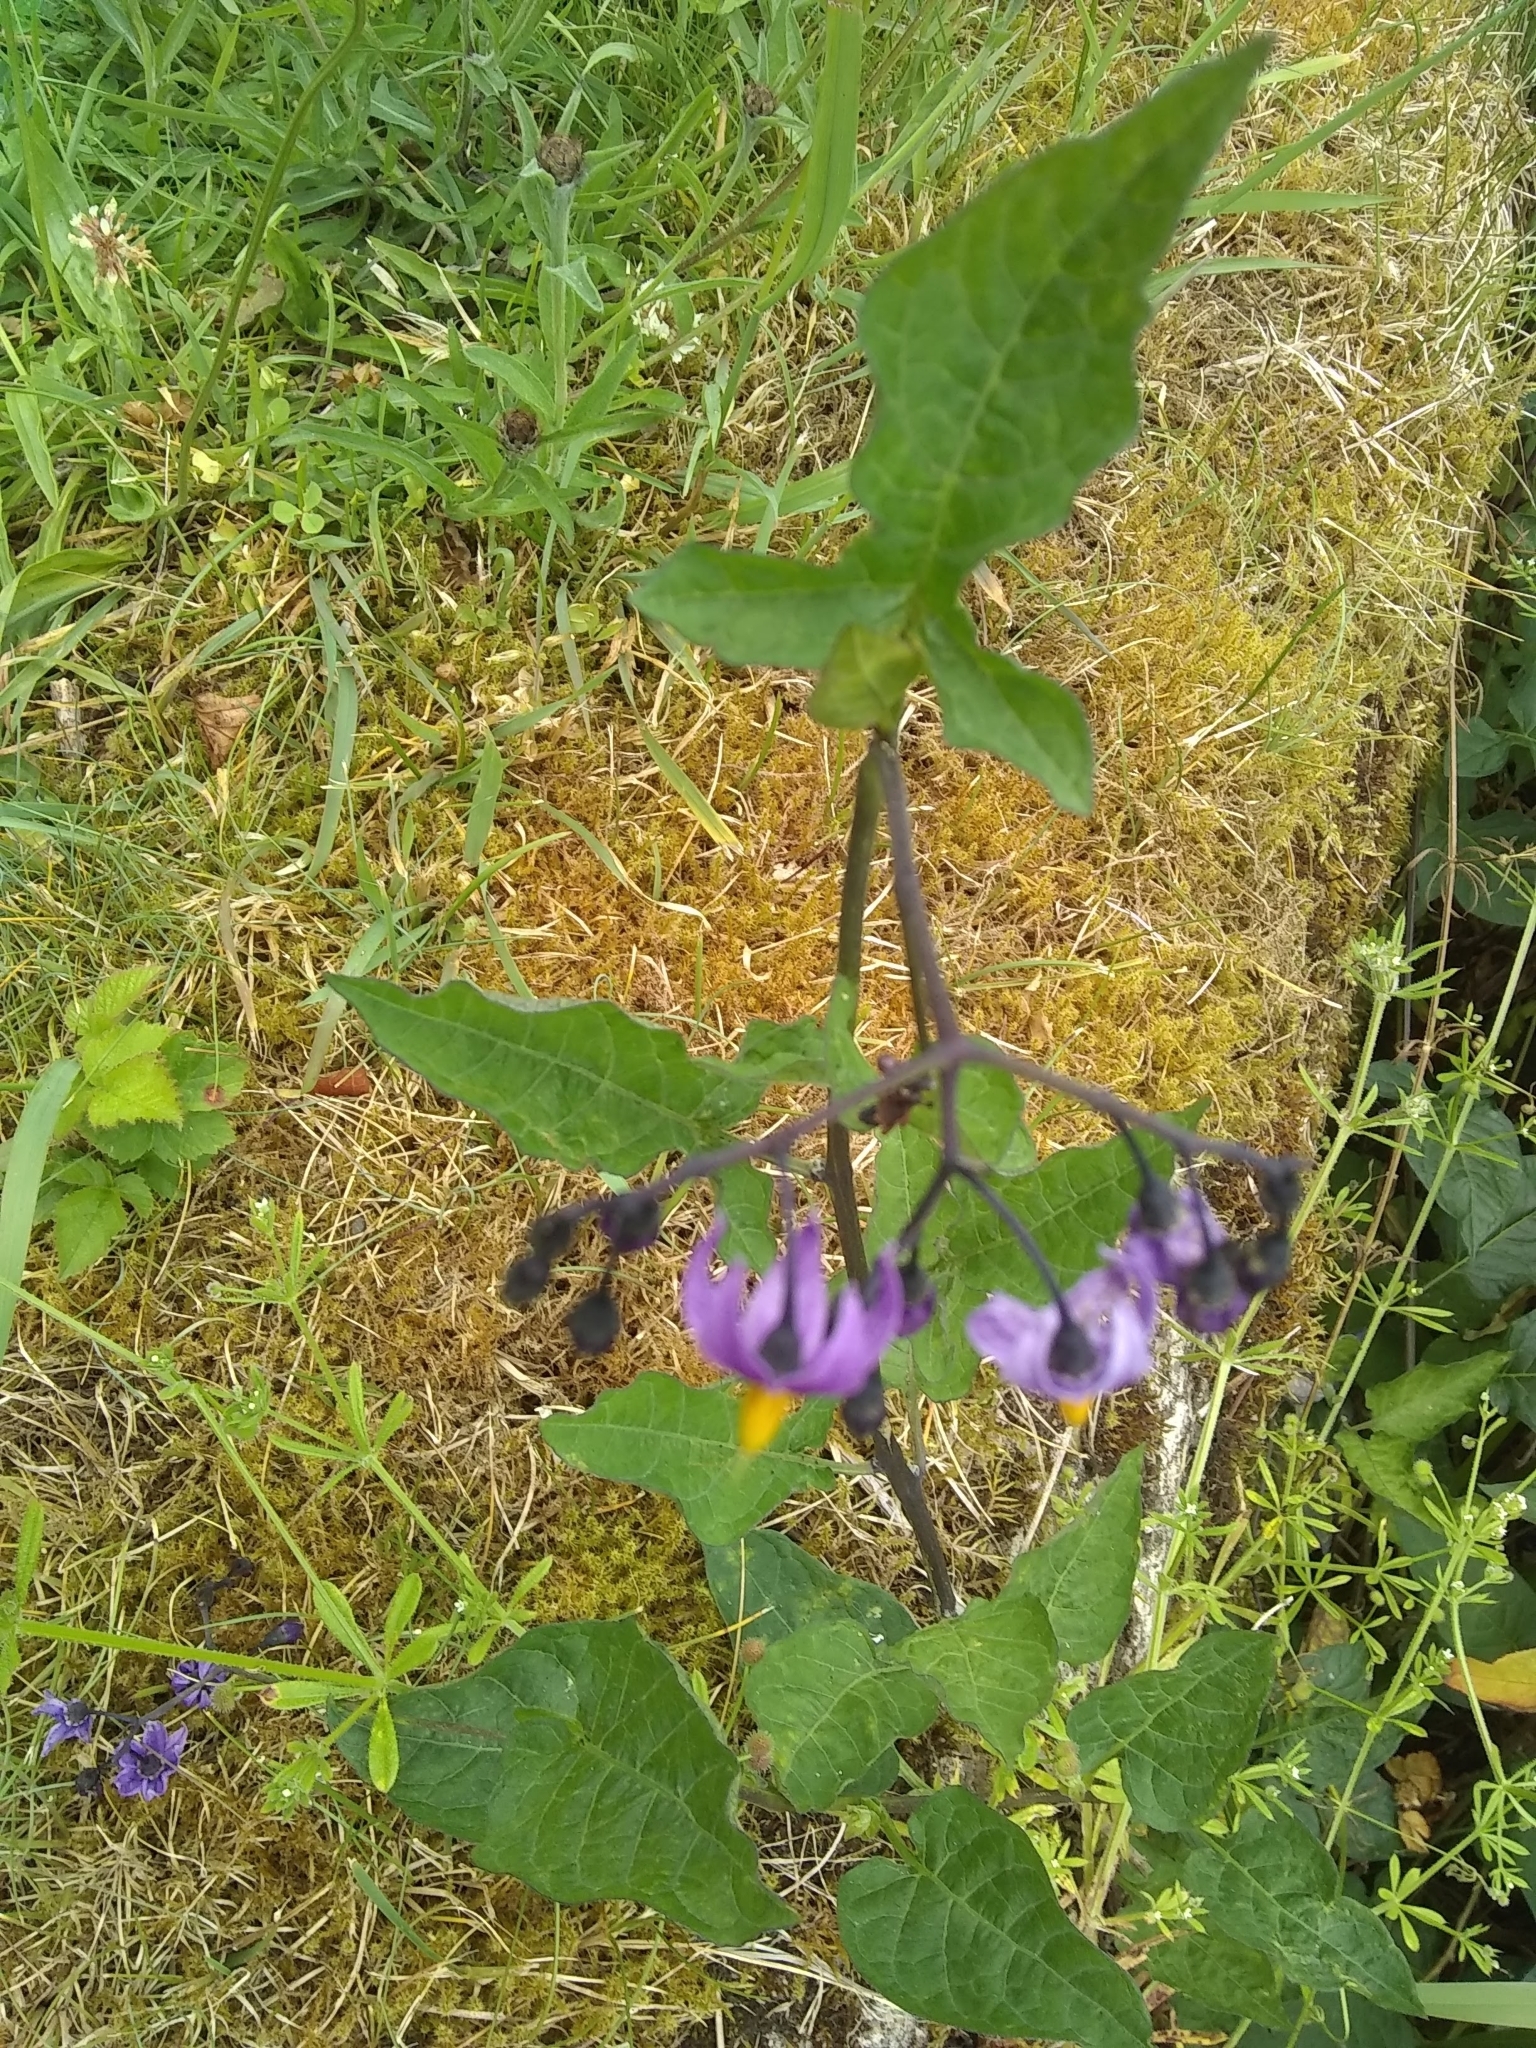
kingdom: Plantae
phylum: Tracheophyta
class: Magnoliopsida
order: Solanales
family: Solanaceae
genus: Solanum
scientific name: Solanum dulcamara
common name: Climbing nightshade
